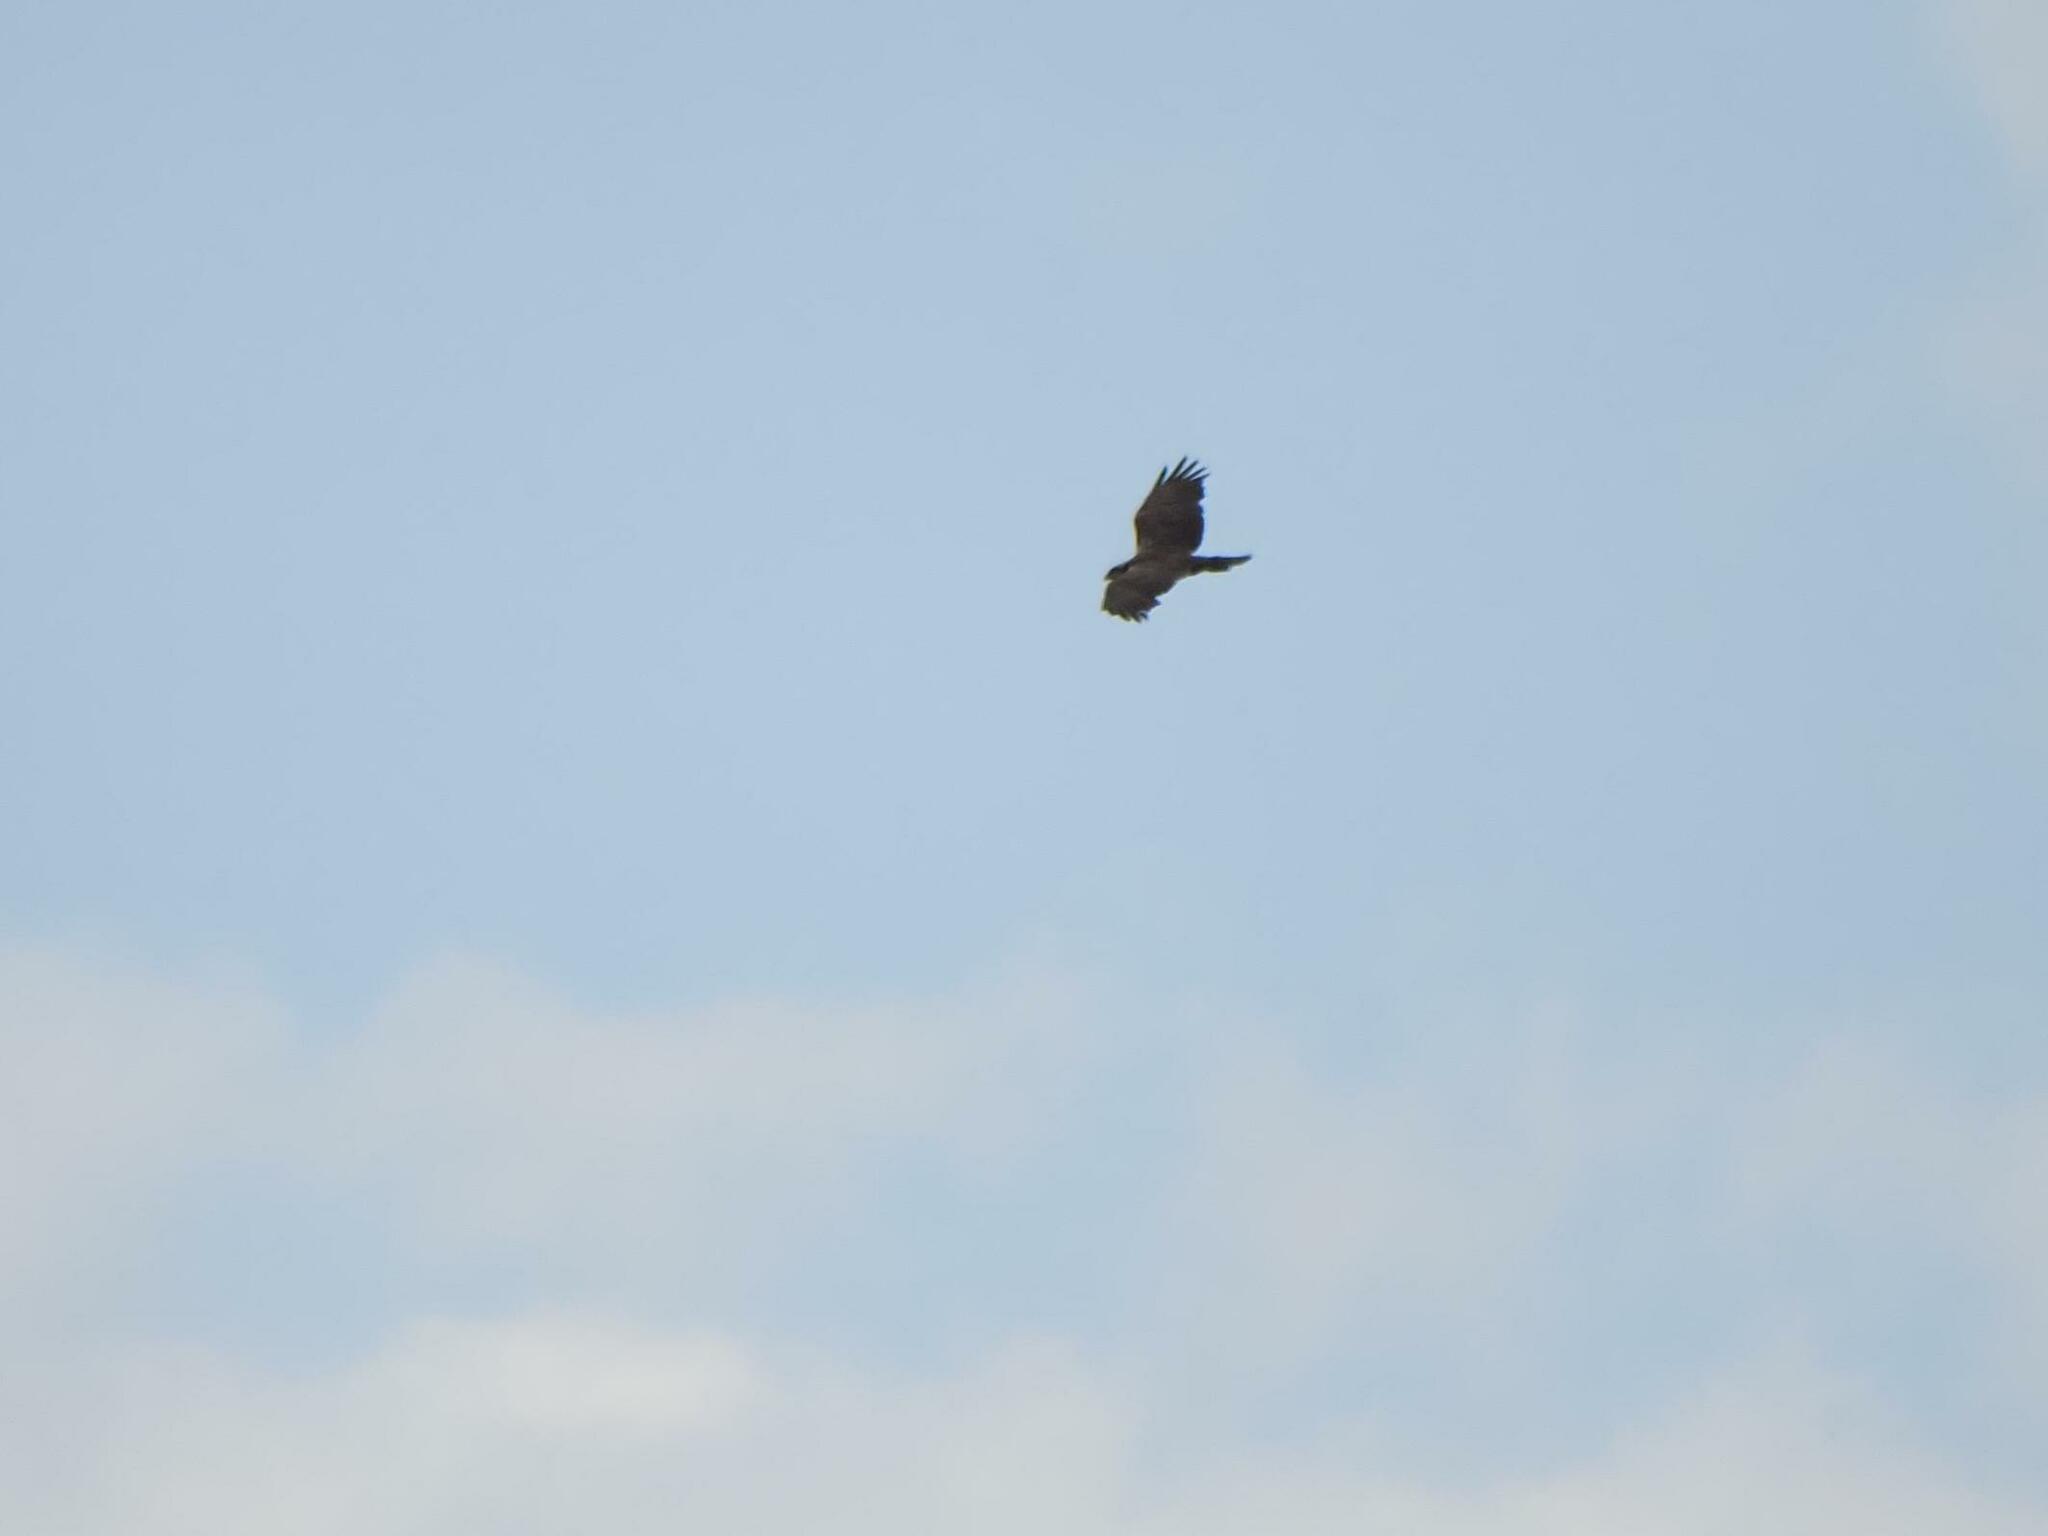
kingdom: Animalia
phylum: Chordata
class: Aves
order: Accipitriformes
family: Pandionidae
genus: Pandion
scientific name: Pandion haliaetus
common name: Osprey
